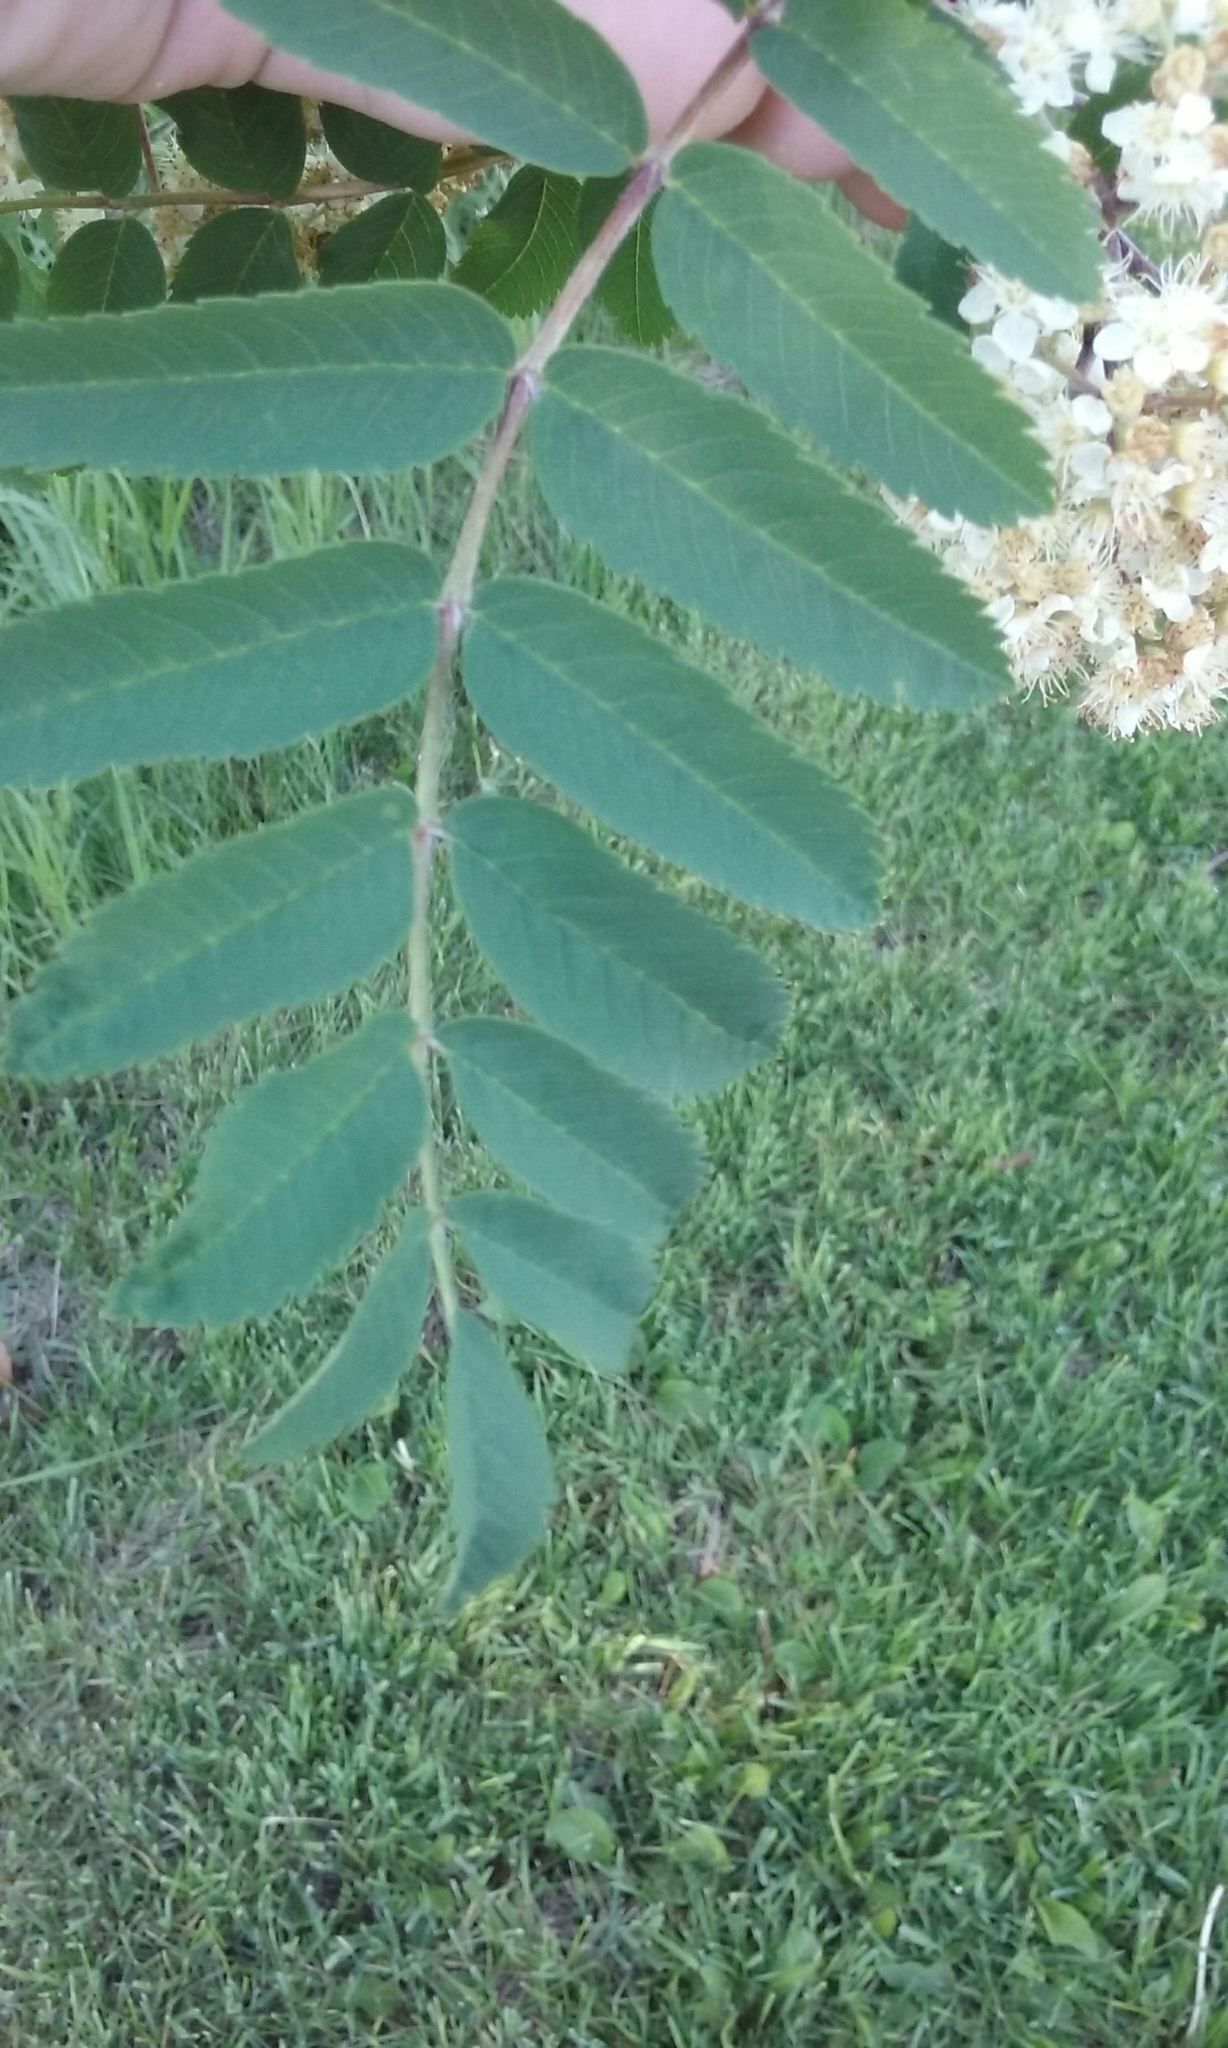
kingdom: Plantae
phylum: Tracheophyta
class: Magnoliopsida
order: Rosales
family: Rosaceae
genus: Sorbus
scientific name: Sorbus americana
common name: American mountain-ash
